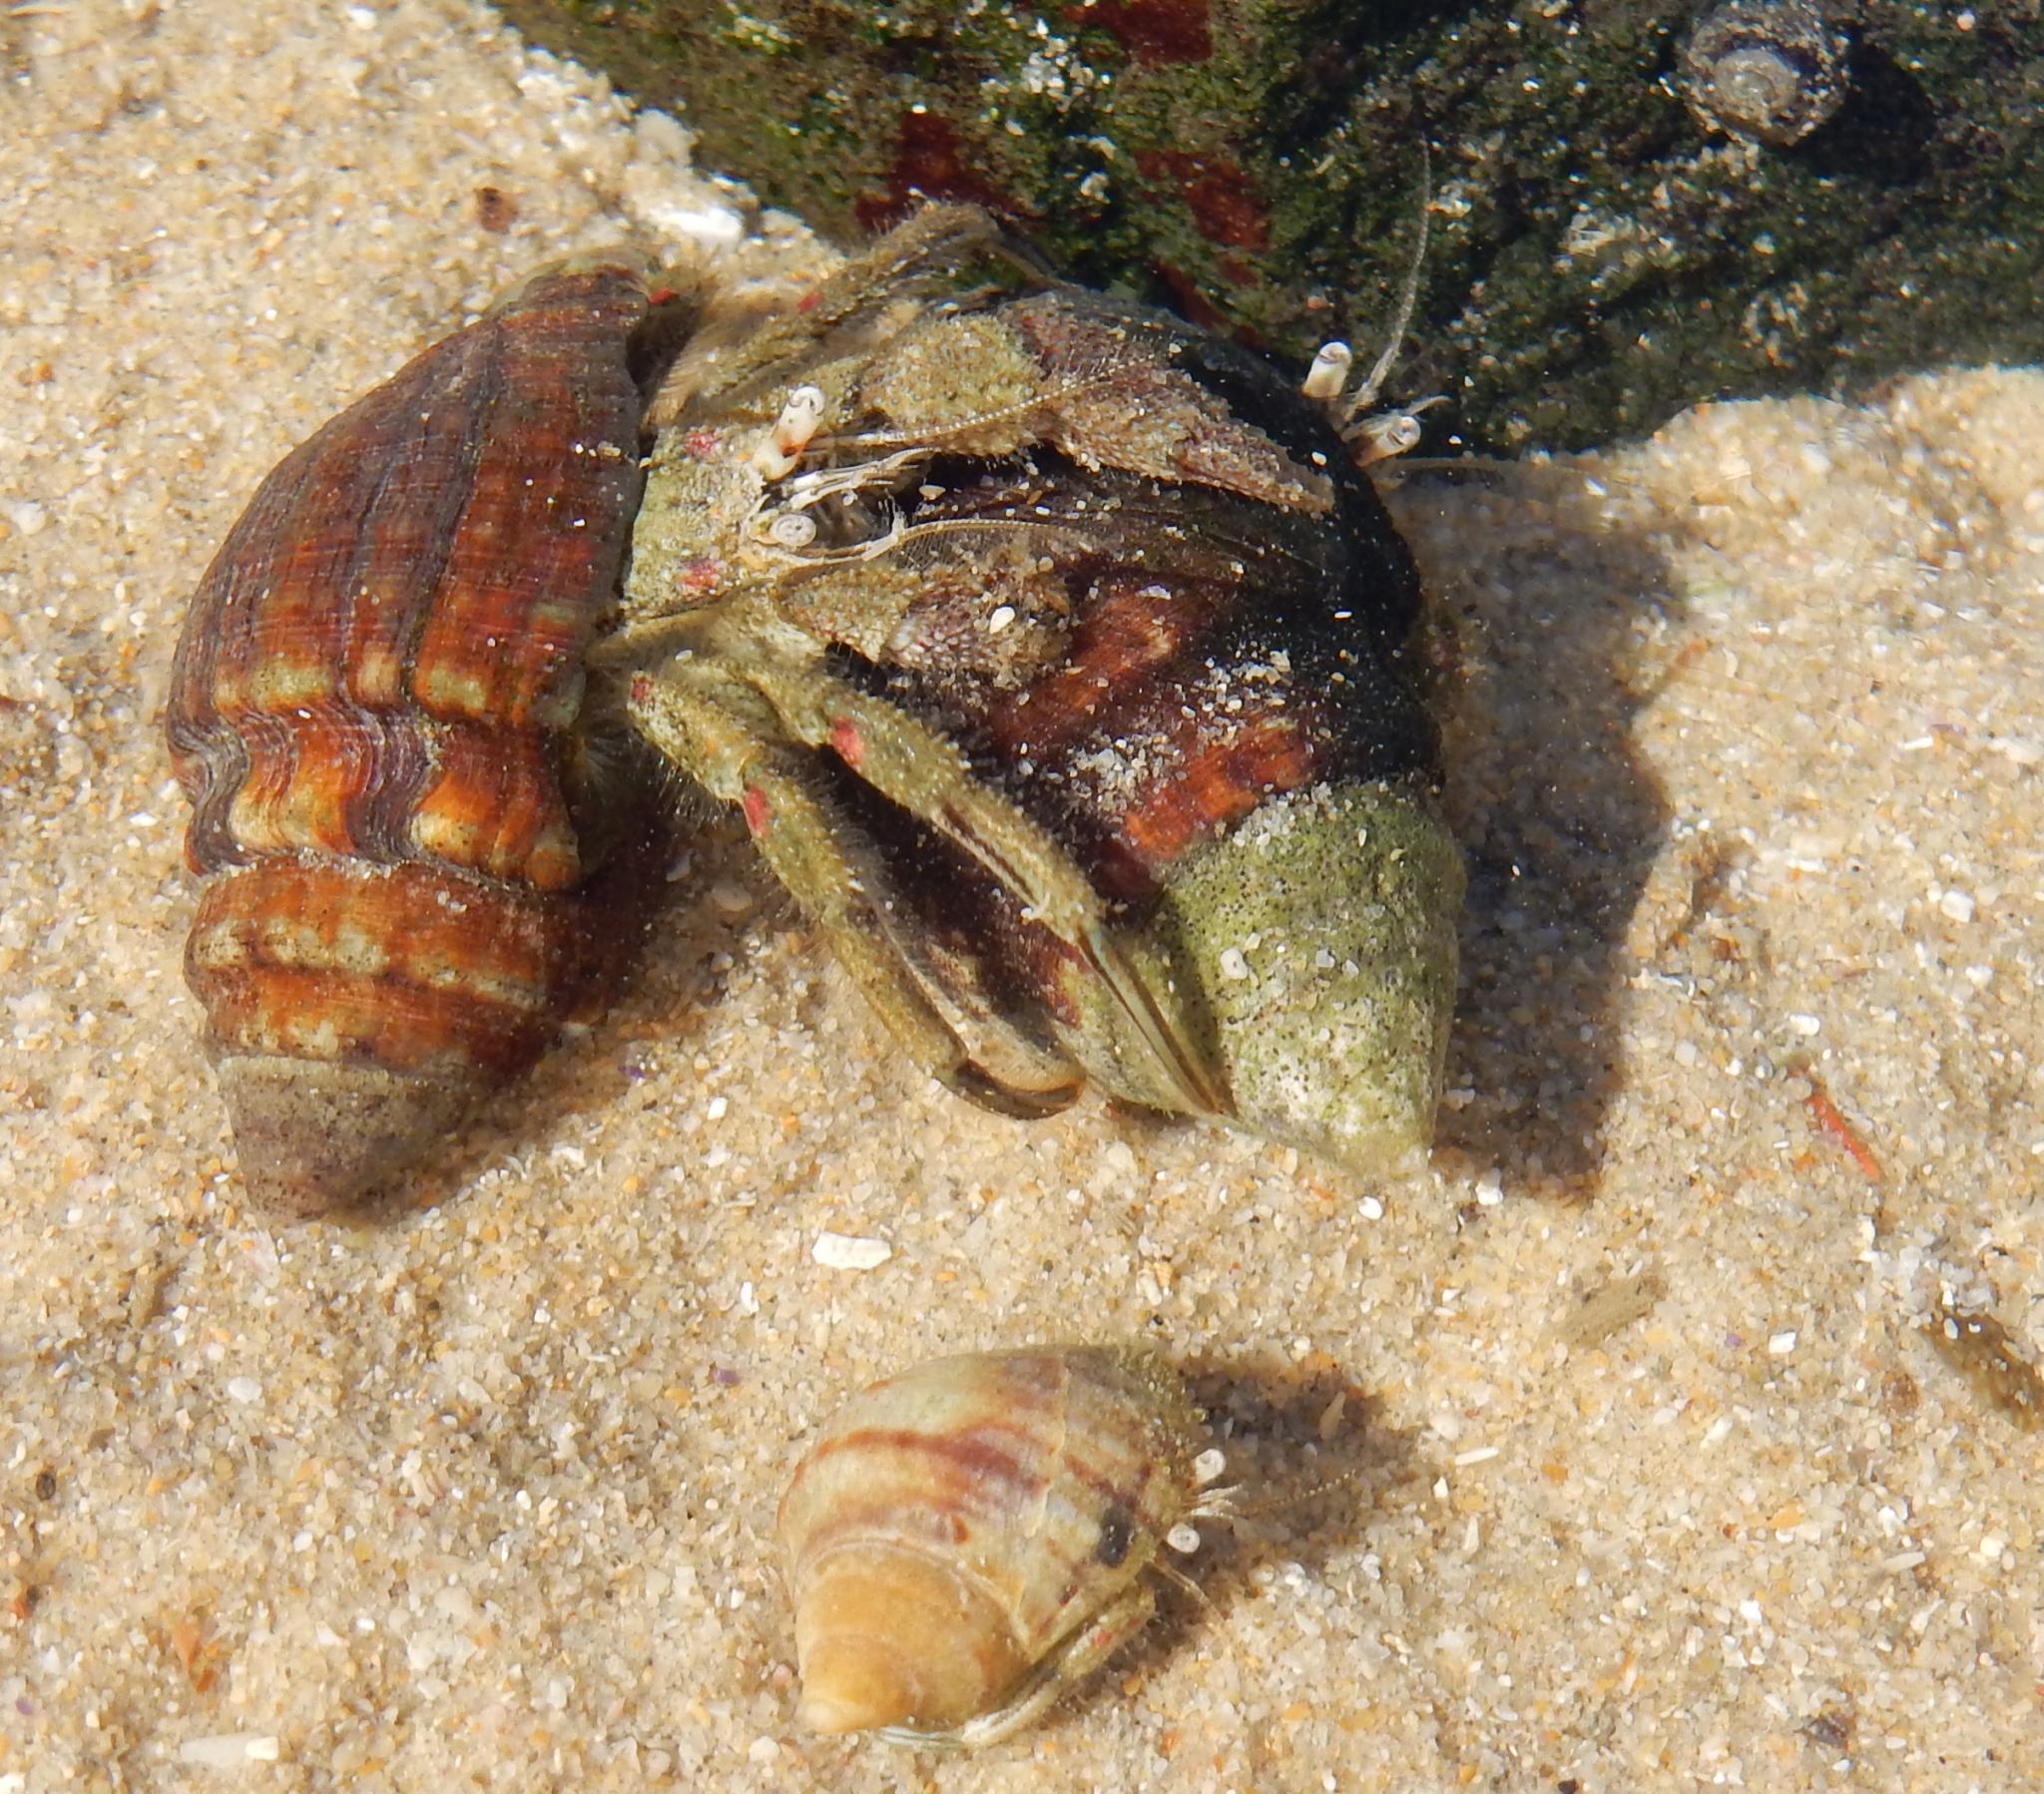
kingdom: Animalia
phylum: Arthropoda
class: Malacostraca
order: Decapoda
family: Diogenidae
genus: Diogenes
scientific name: Diogenes brevirostris
